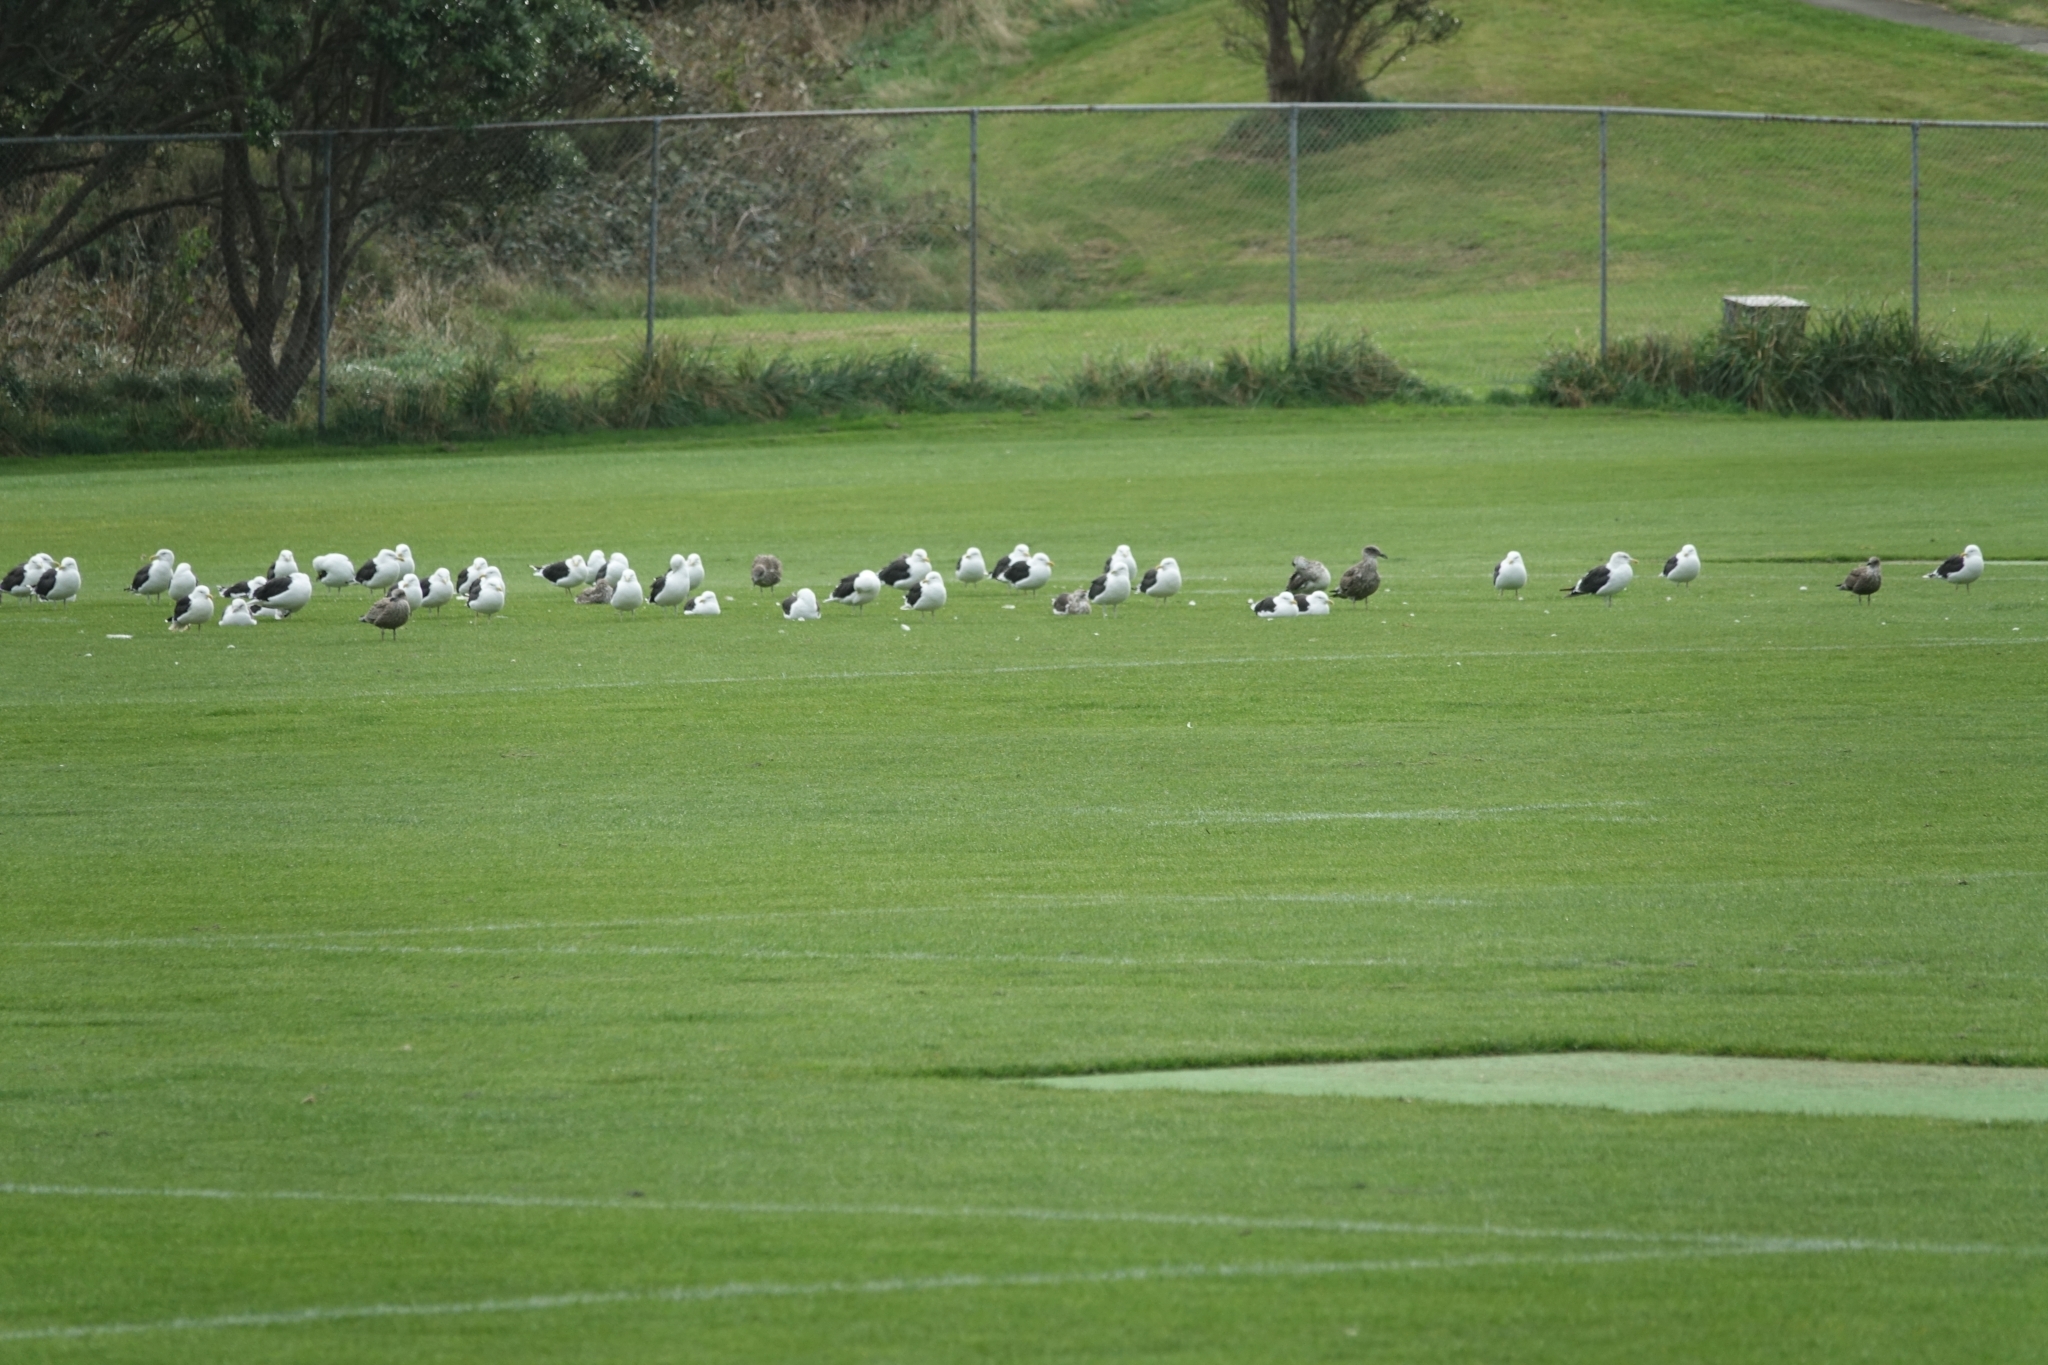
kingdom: Animalia
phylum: Chordata
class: Aves
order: Charadriiformes
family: Laridae
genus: Larus
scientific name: Larus dominicanus
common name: Kelp gull
